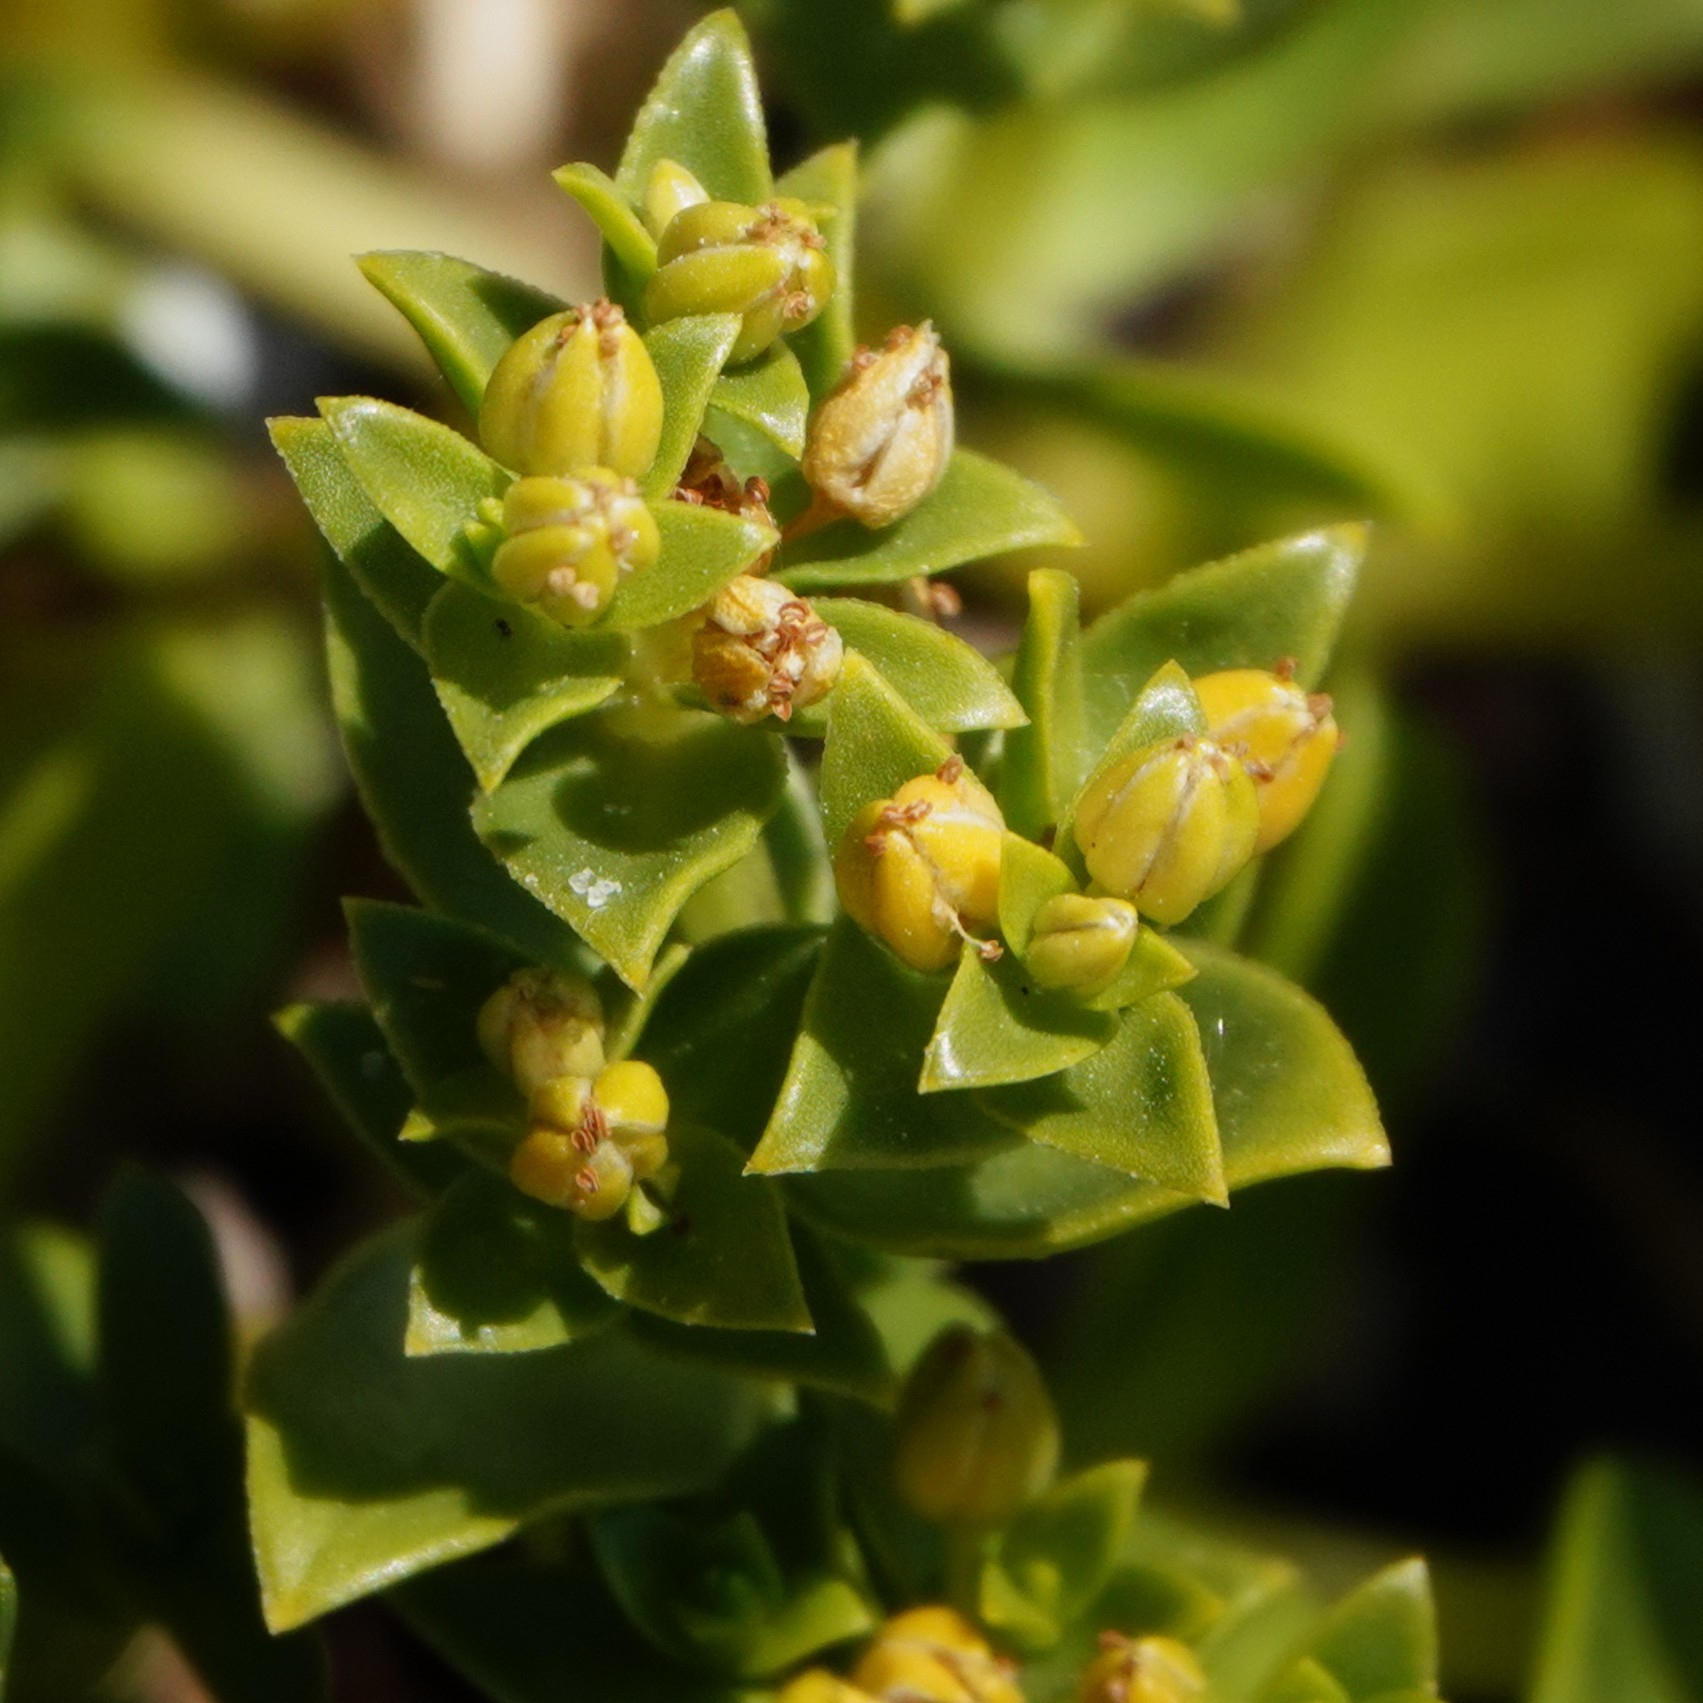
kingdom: Plantae
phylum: Tracheophyta
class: Magnoliopsida
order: Caryophyllales
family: Caryophyllaceae
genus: Honckenya
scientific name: Honckenya peploides
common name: Sea sandwort
